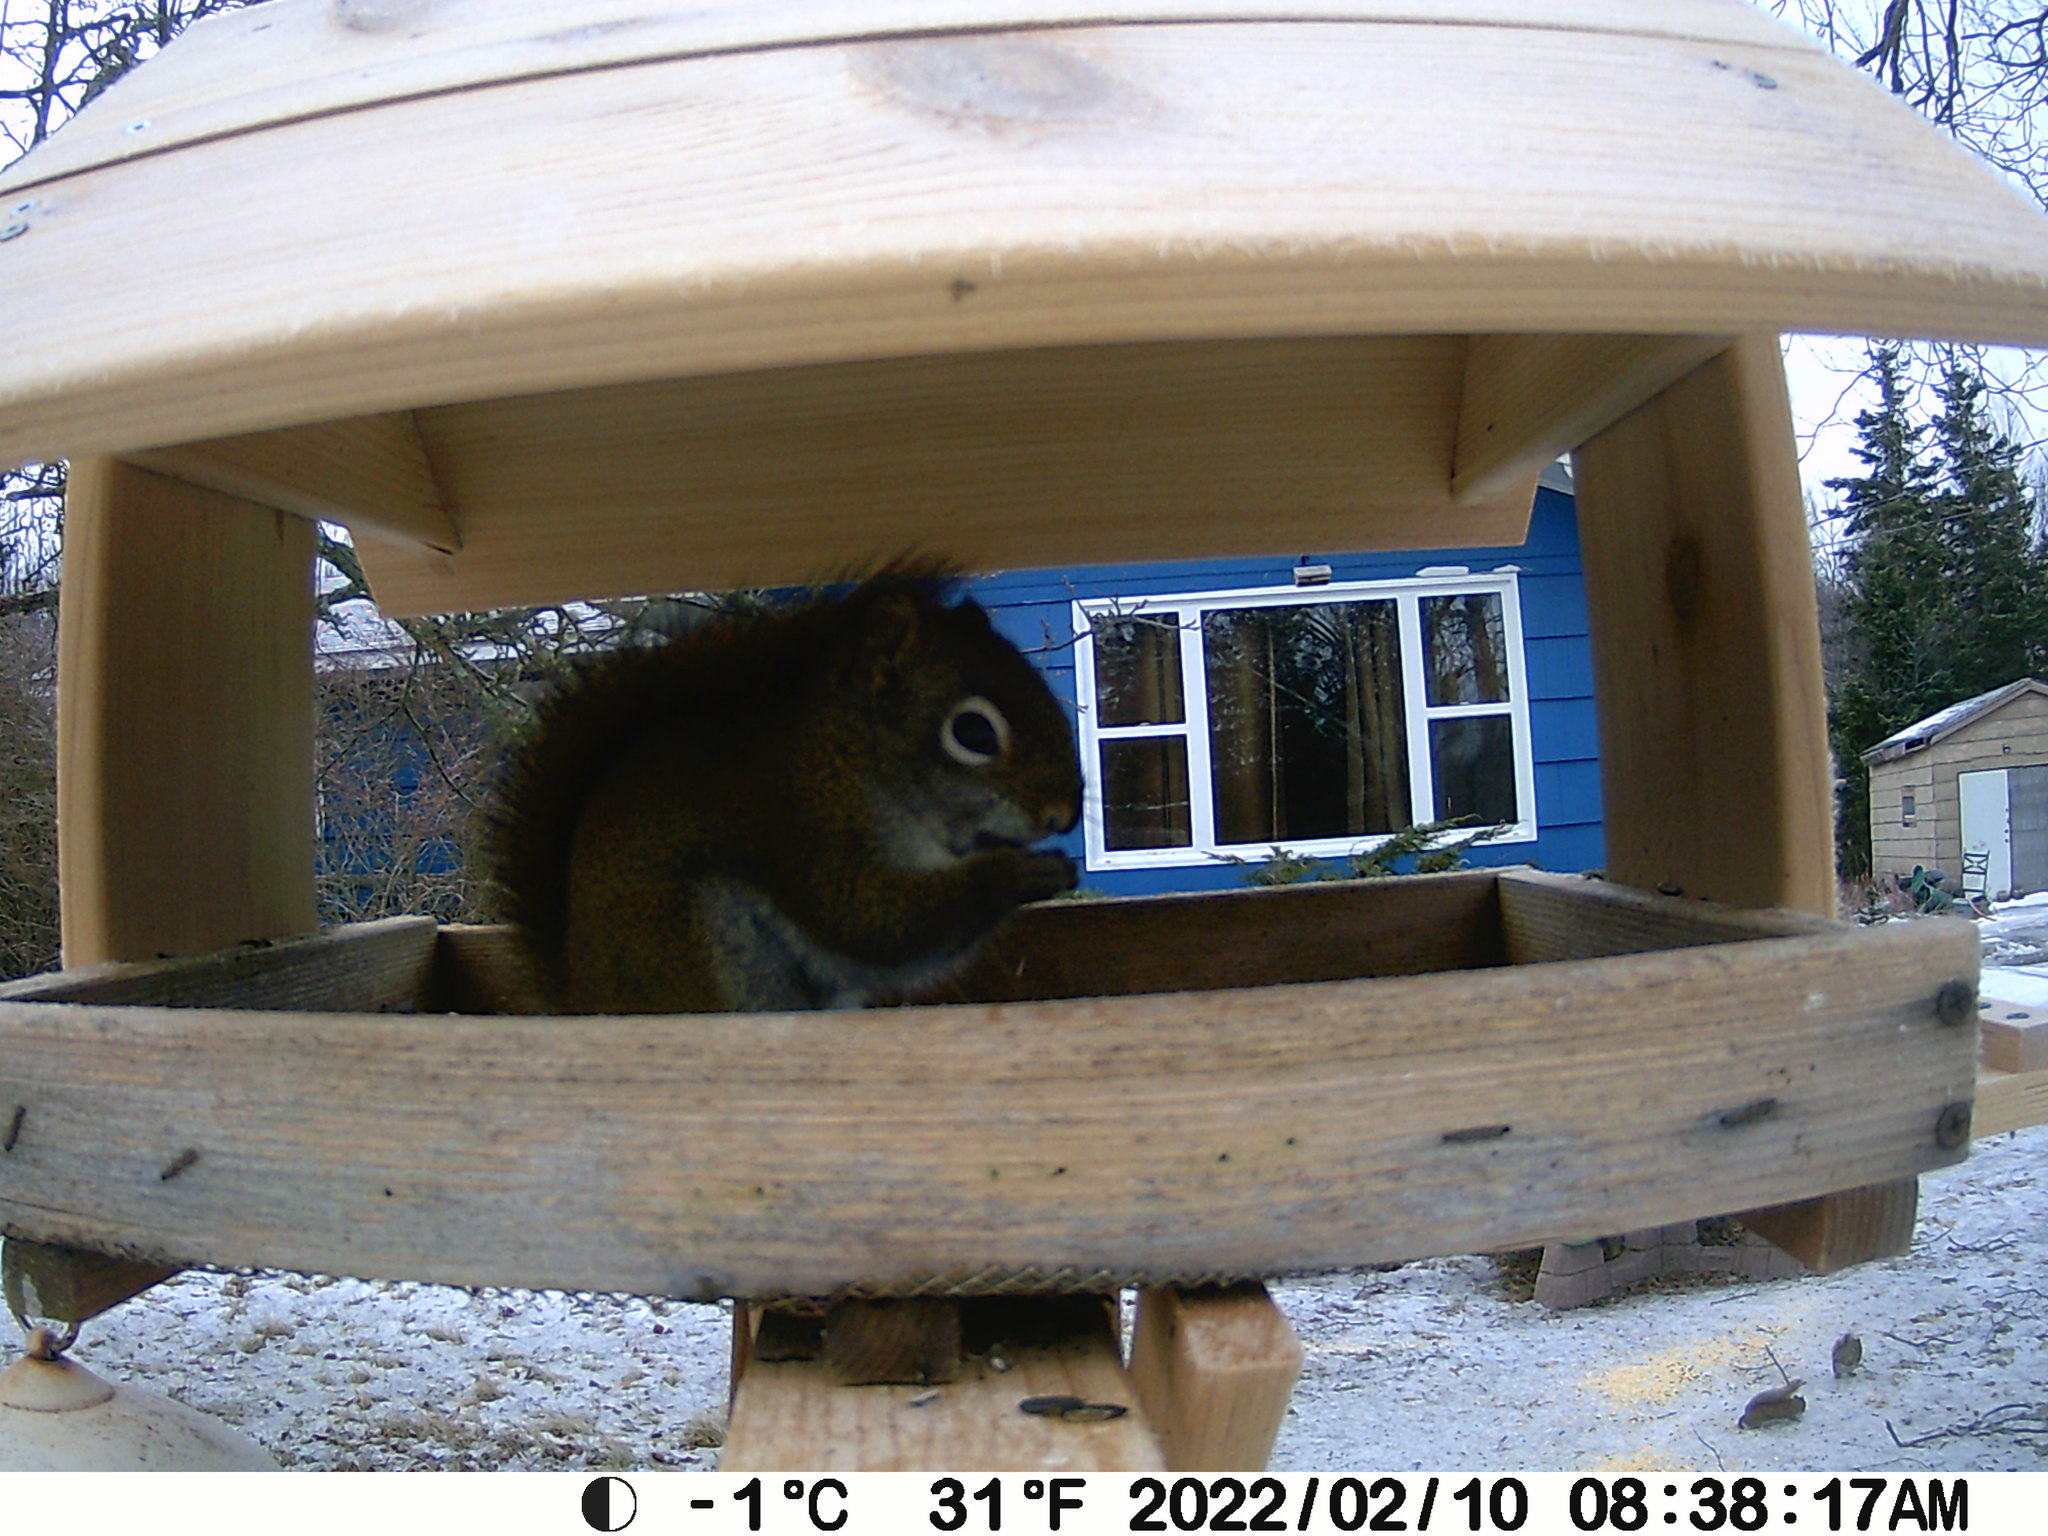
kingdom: Animalia
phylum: Chordata
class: Mammalia
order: Rodentia
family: Sciuridae
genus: Tamiasciurus
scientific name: Tamiasciurus hudsonicus
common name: Red squirrel
